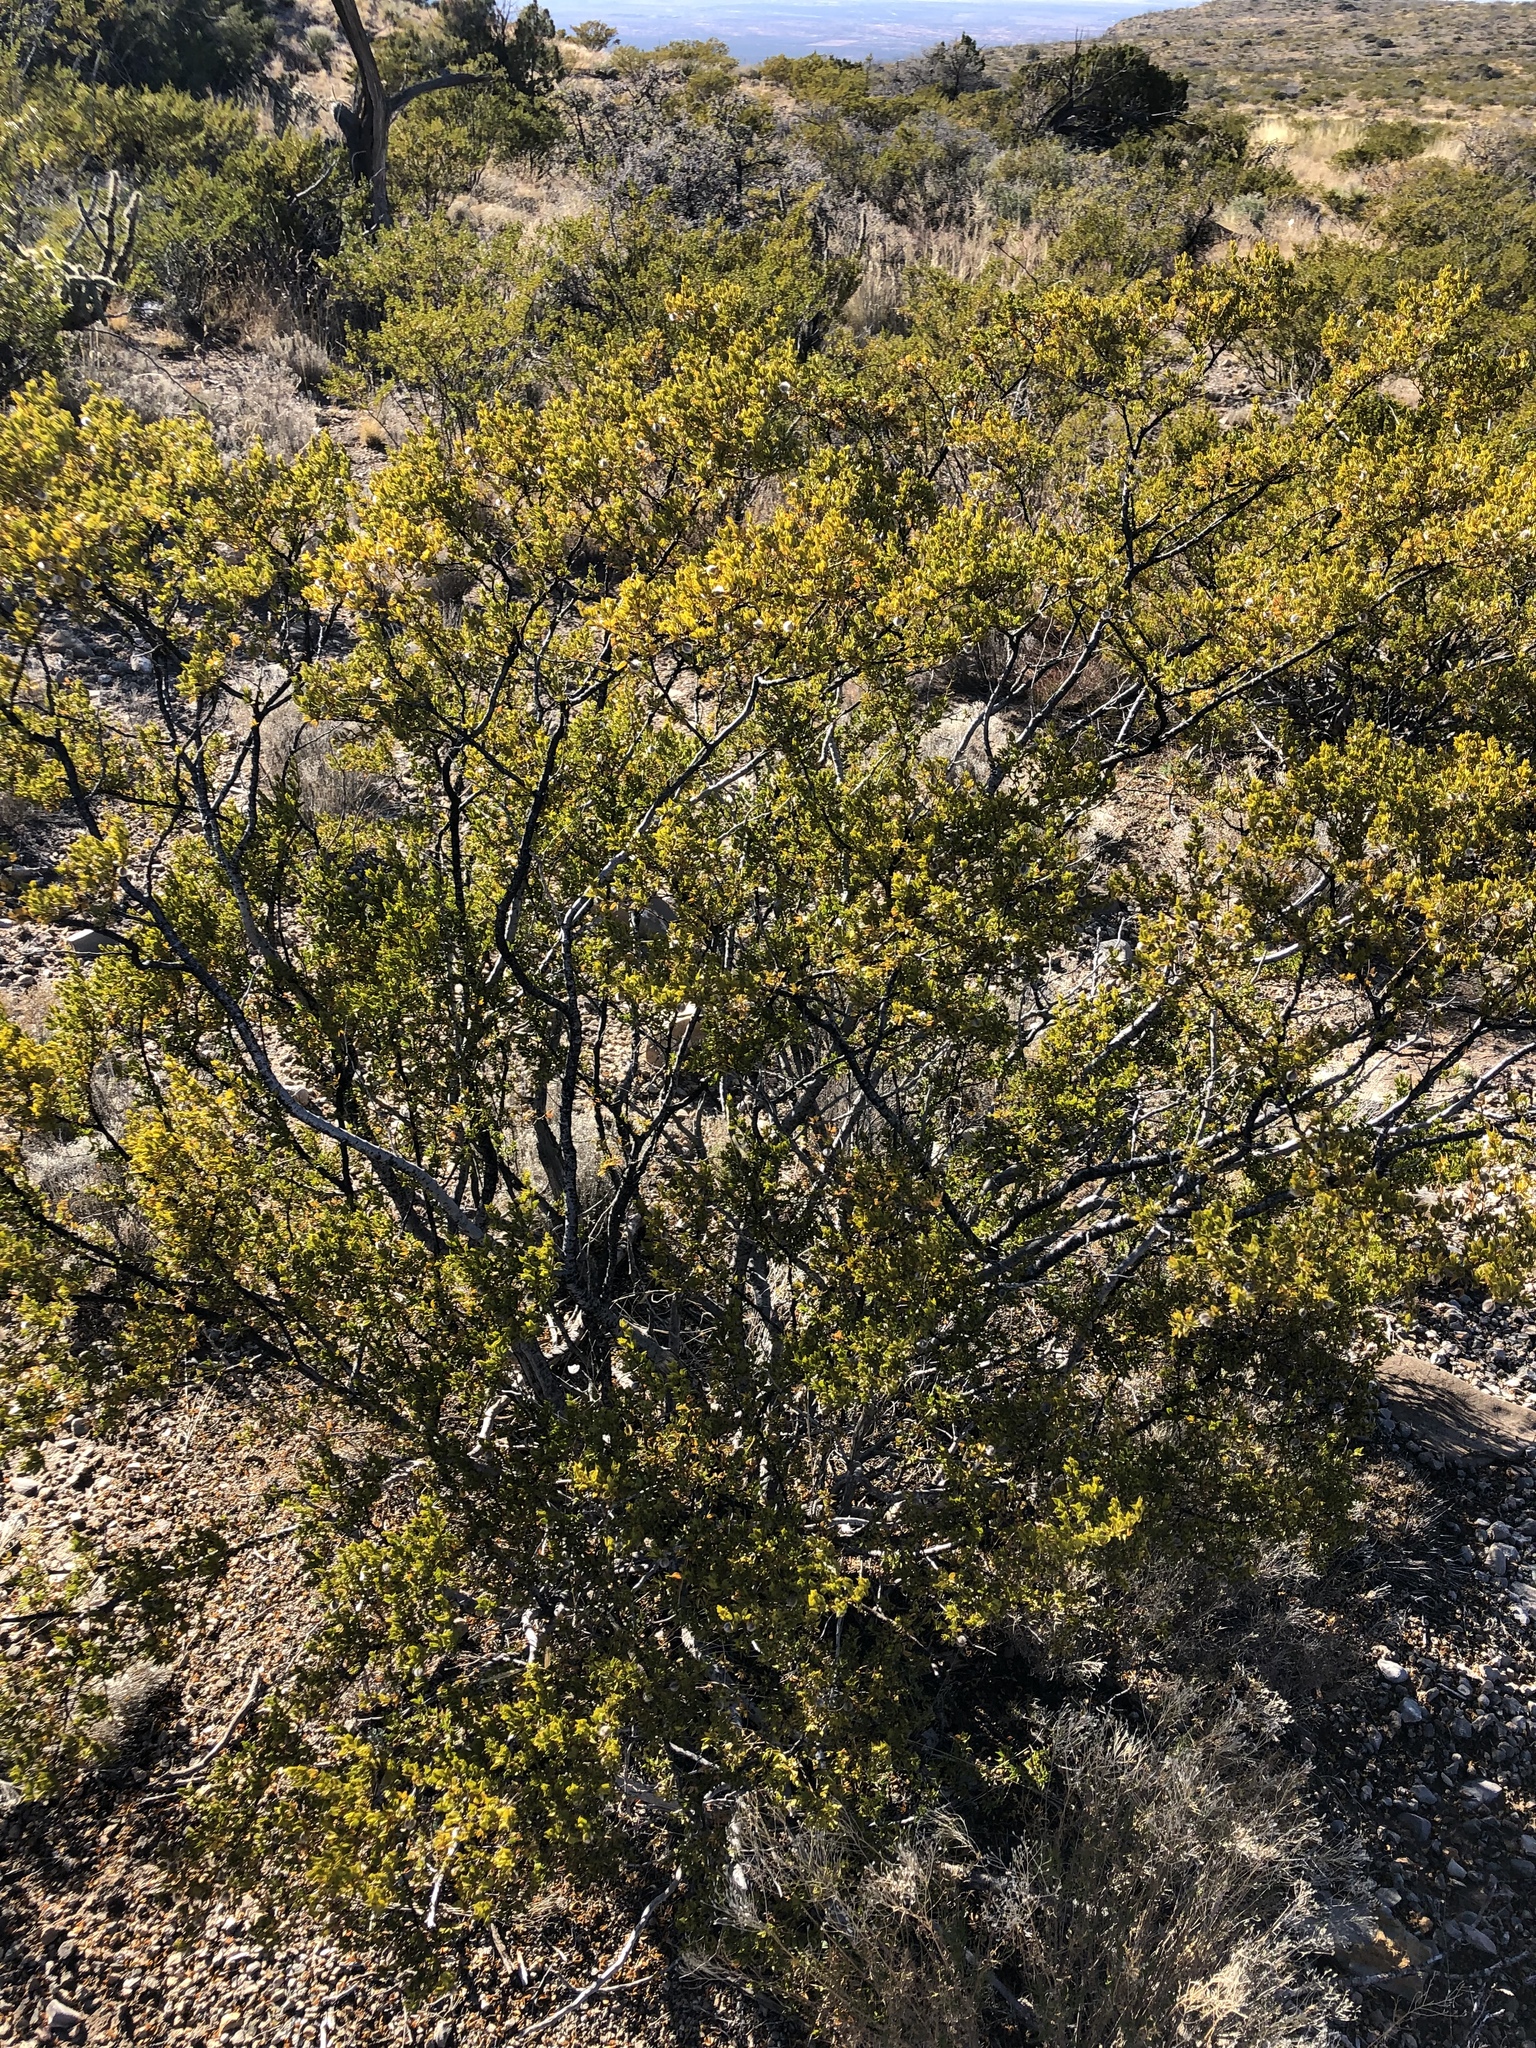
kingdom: Plantae
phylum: Tracheophyta
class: Magnoliopsida
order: Zygophyllales
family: Zygophyllaceae
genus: Larrea
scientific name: Larrea tridentata
